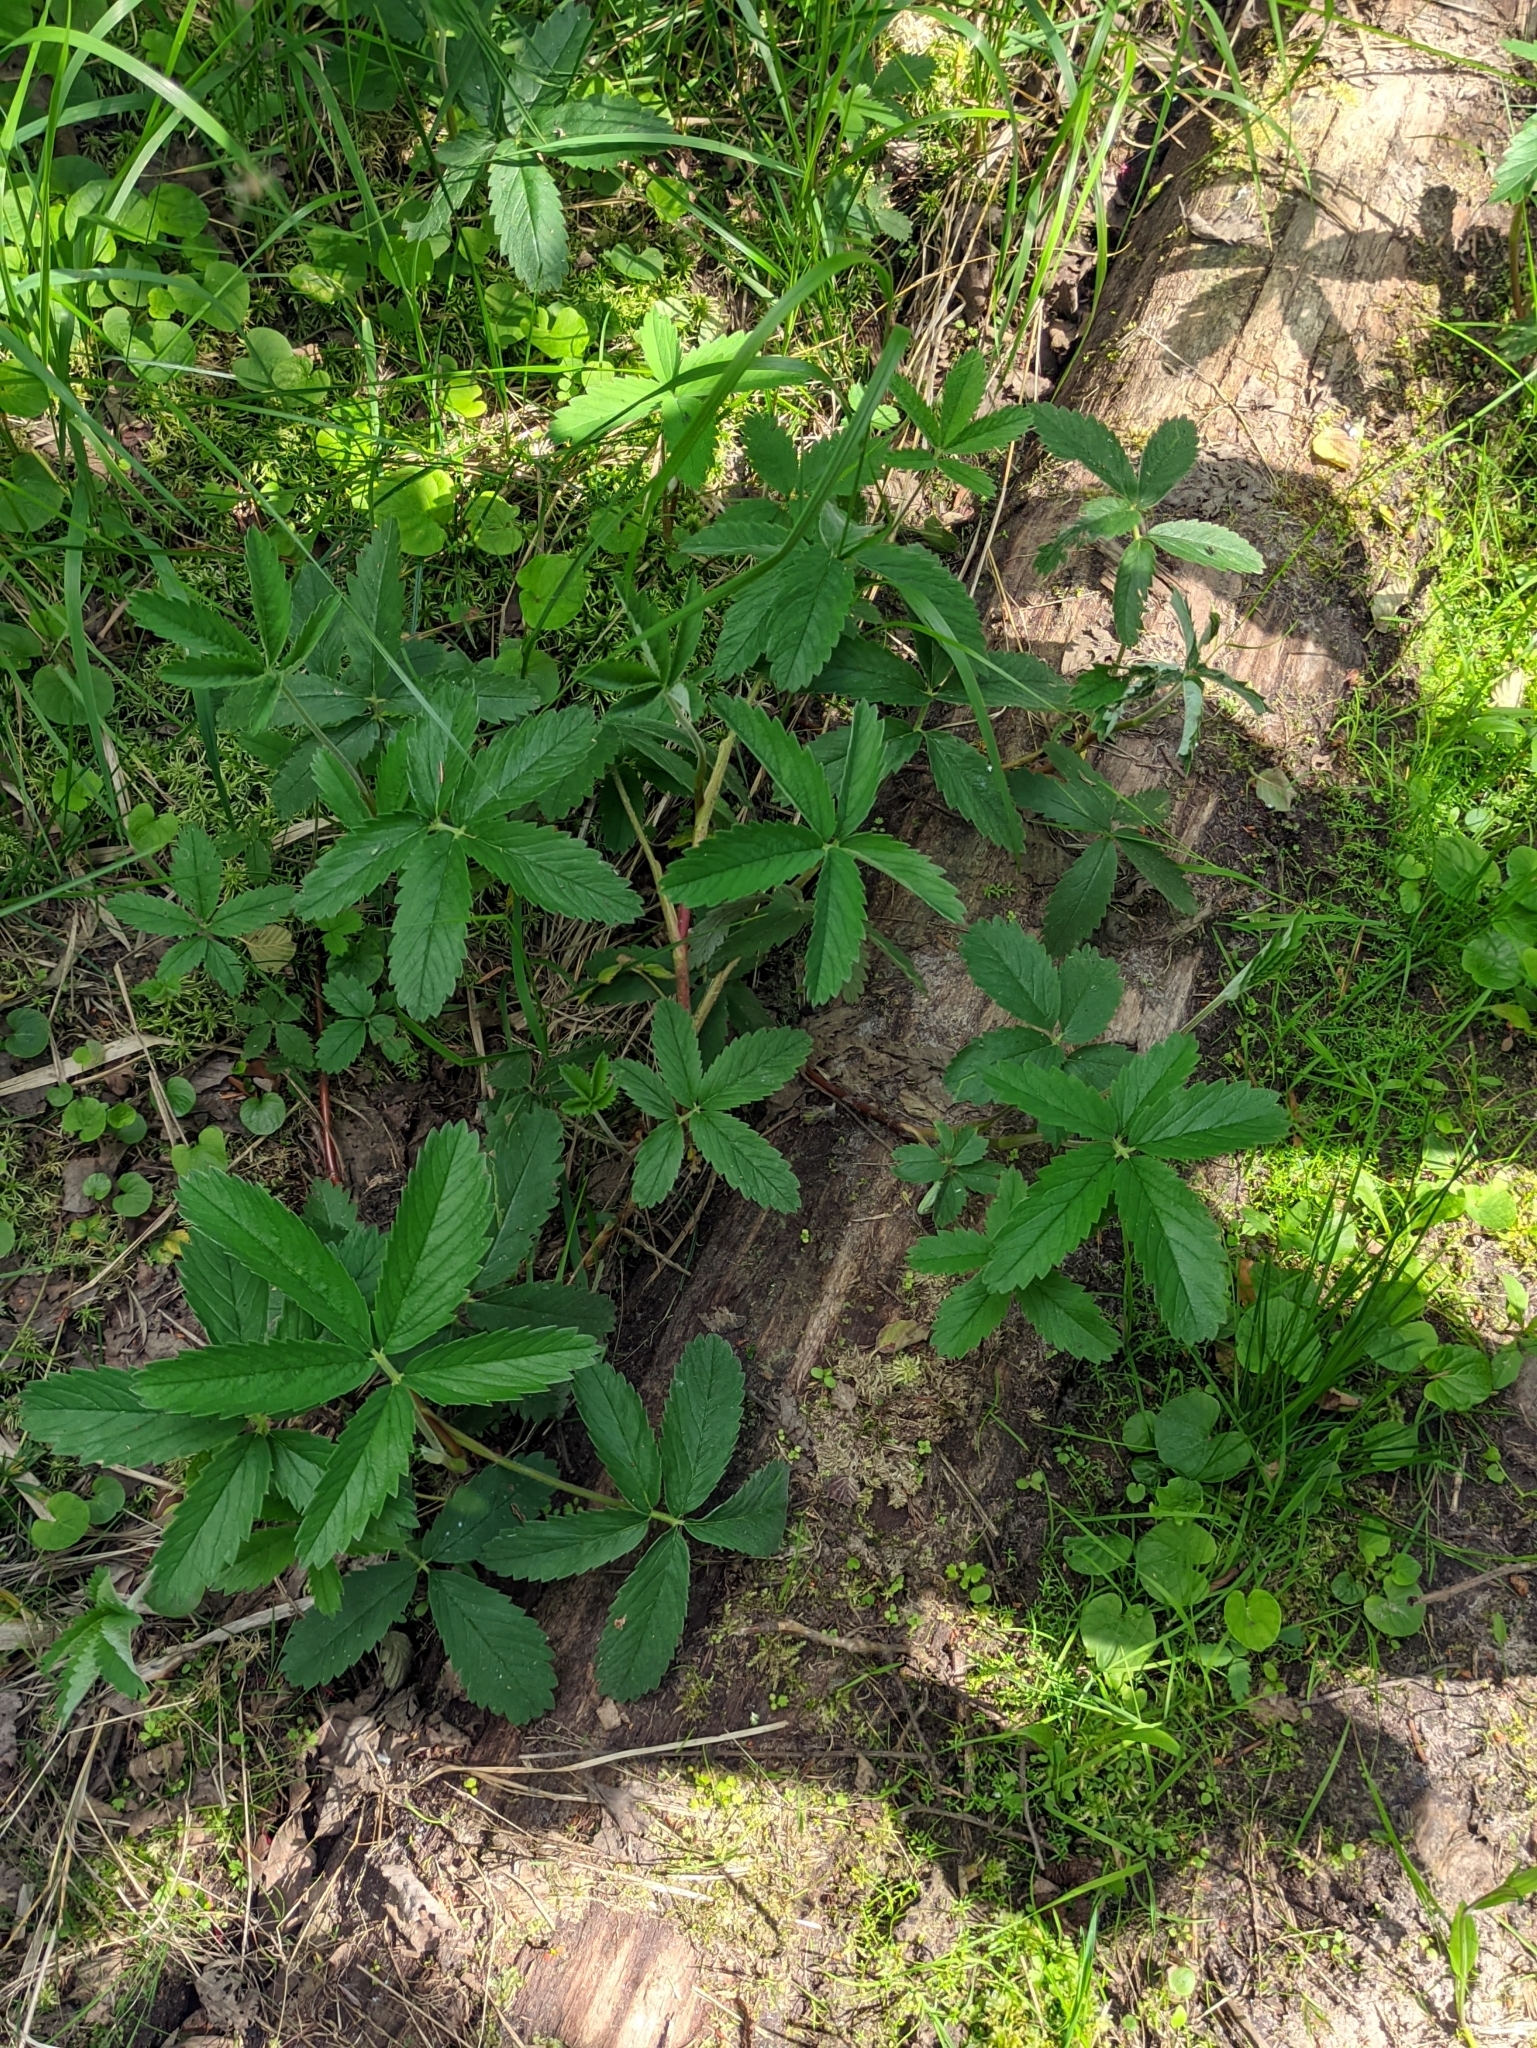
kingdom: Plantae
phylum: Tracheophyta
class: Magnoliopsida
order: Rosales
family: Rosaceae
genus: Comarum
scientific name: Comarum palustre
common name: Marsh cinquefoil
